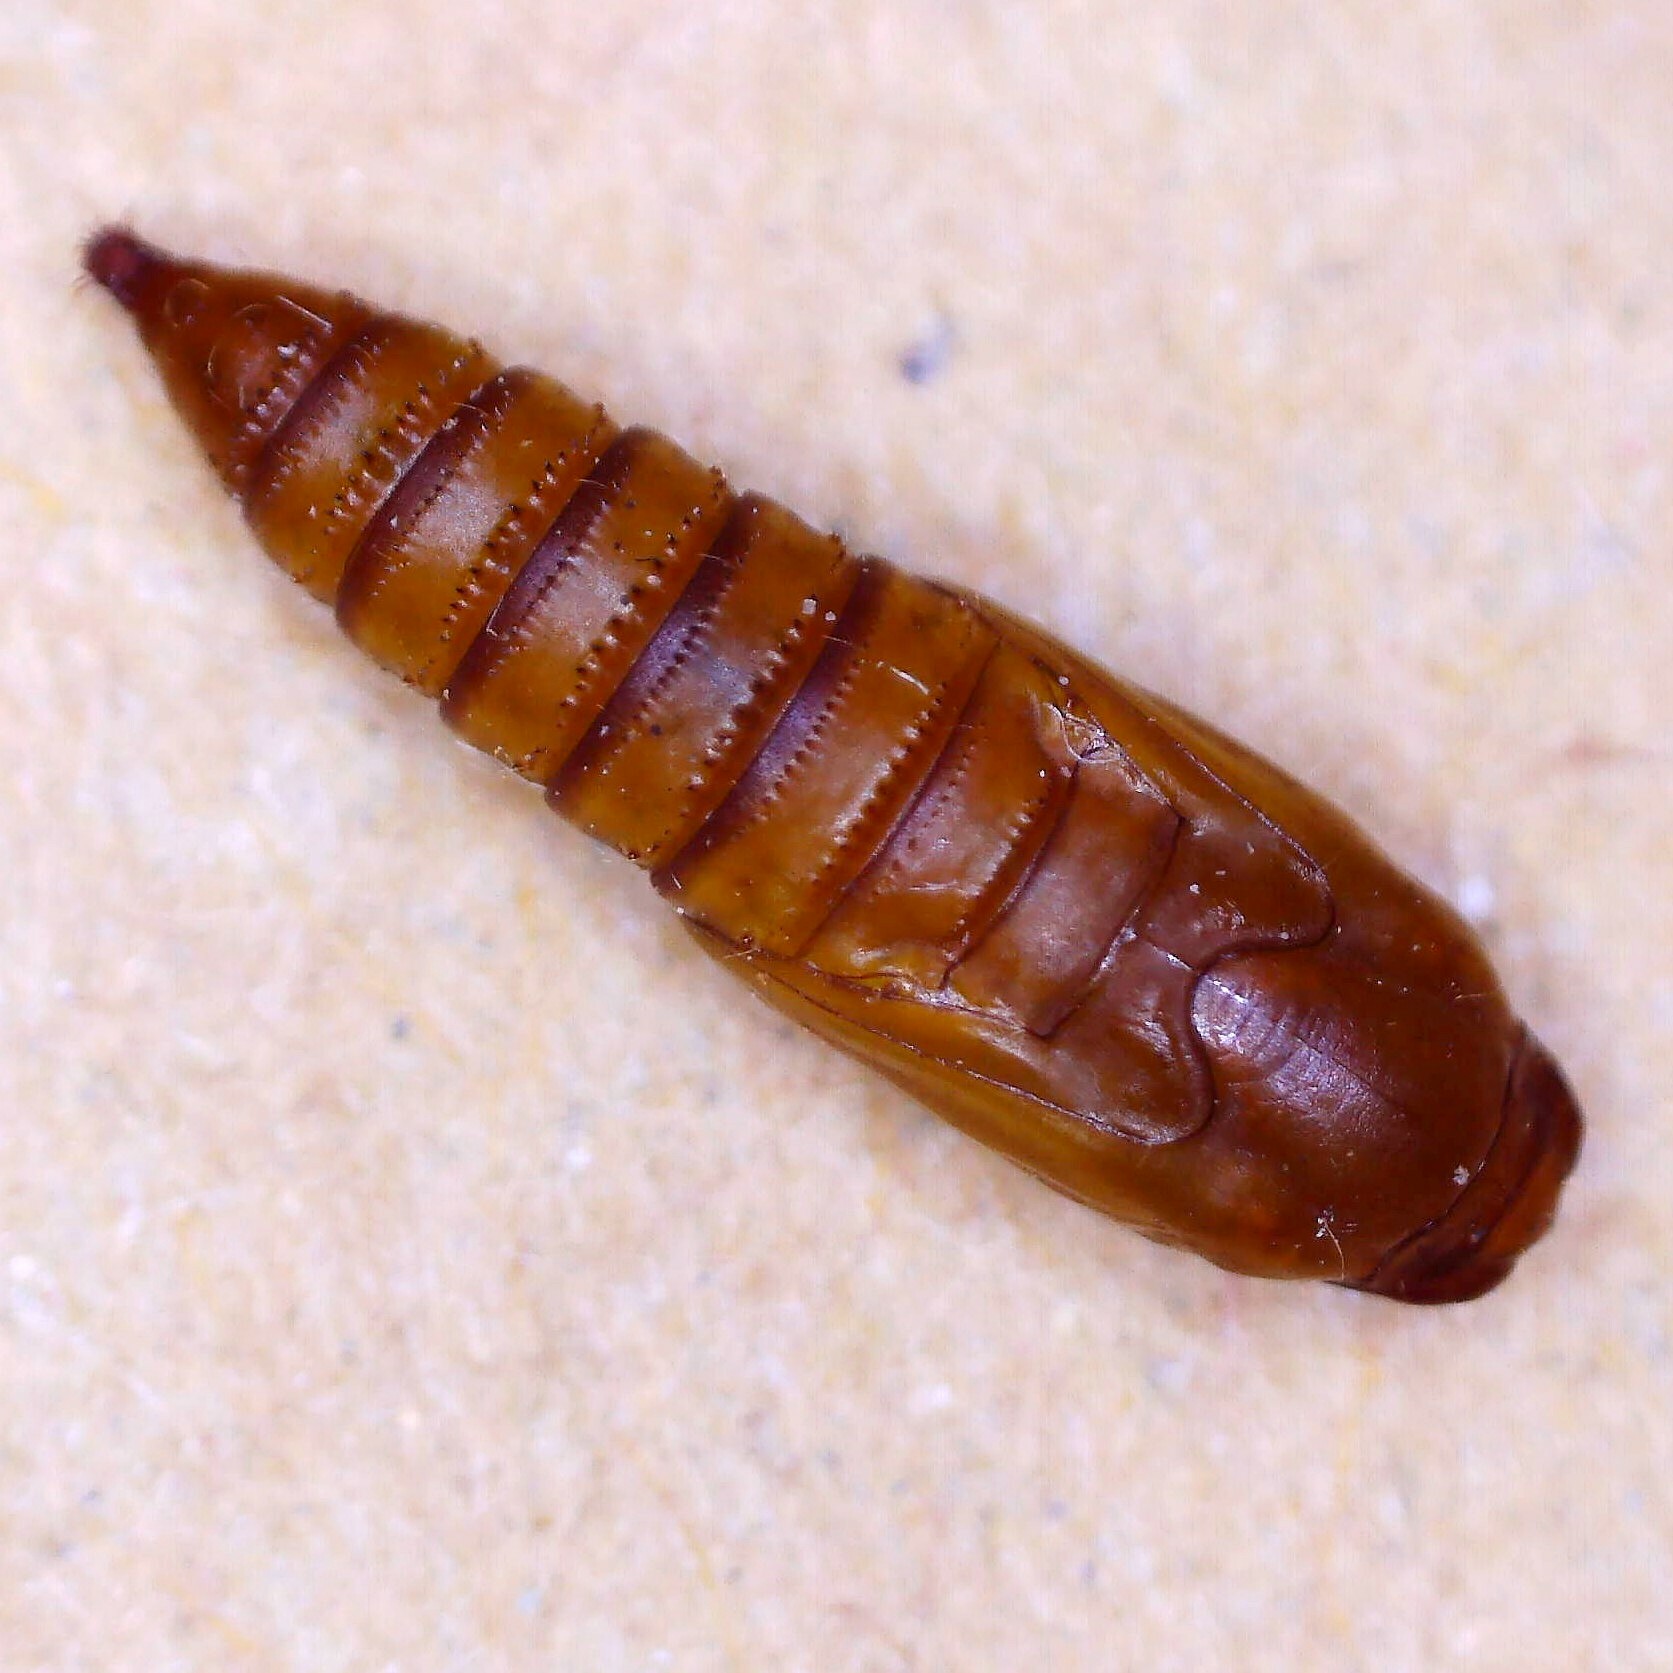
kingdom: Animalia
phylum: Arthropoda
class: Insecta
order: Lepidoptera
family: Tortricidae
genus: Epiphyas
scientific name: Epiphyas postvittana
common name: Light brown apple moth
